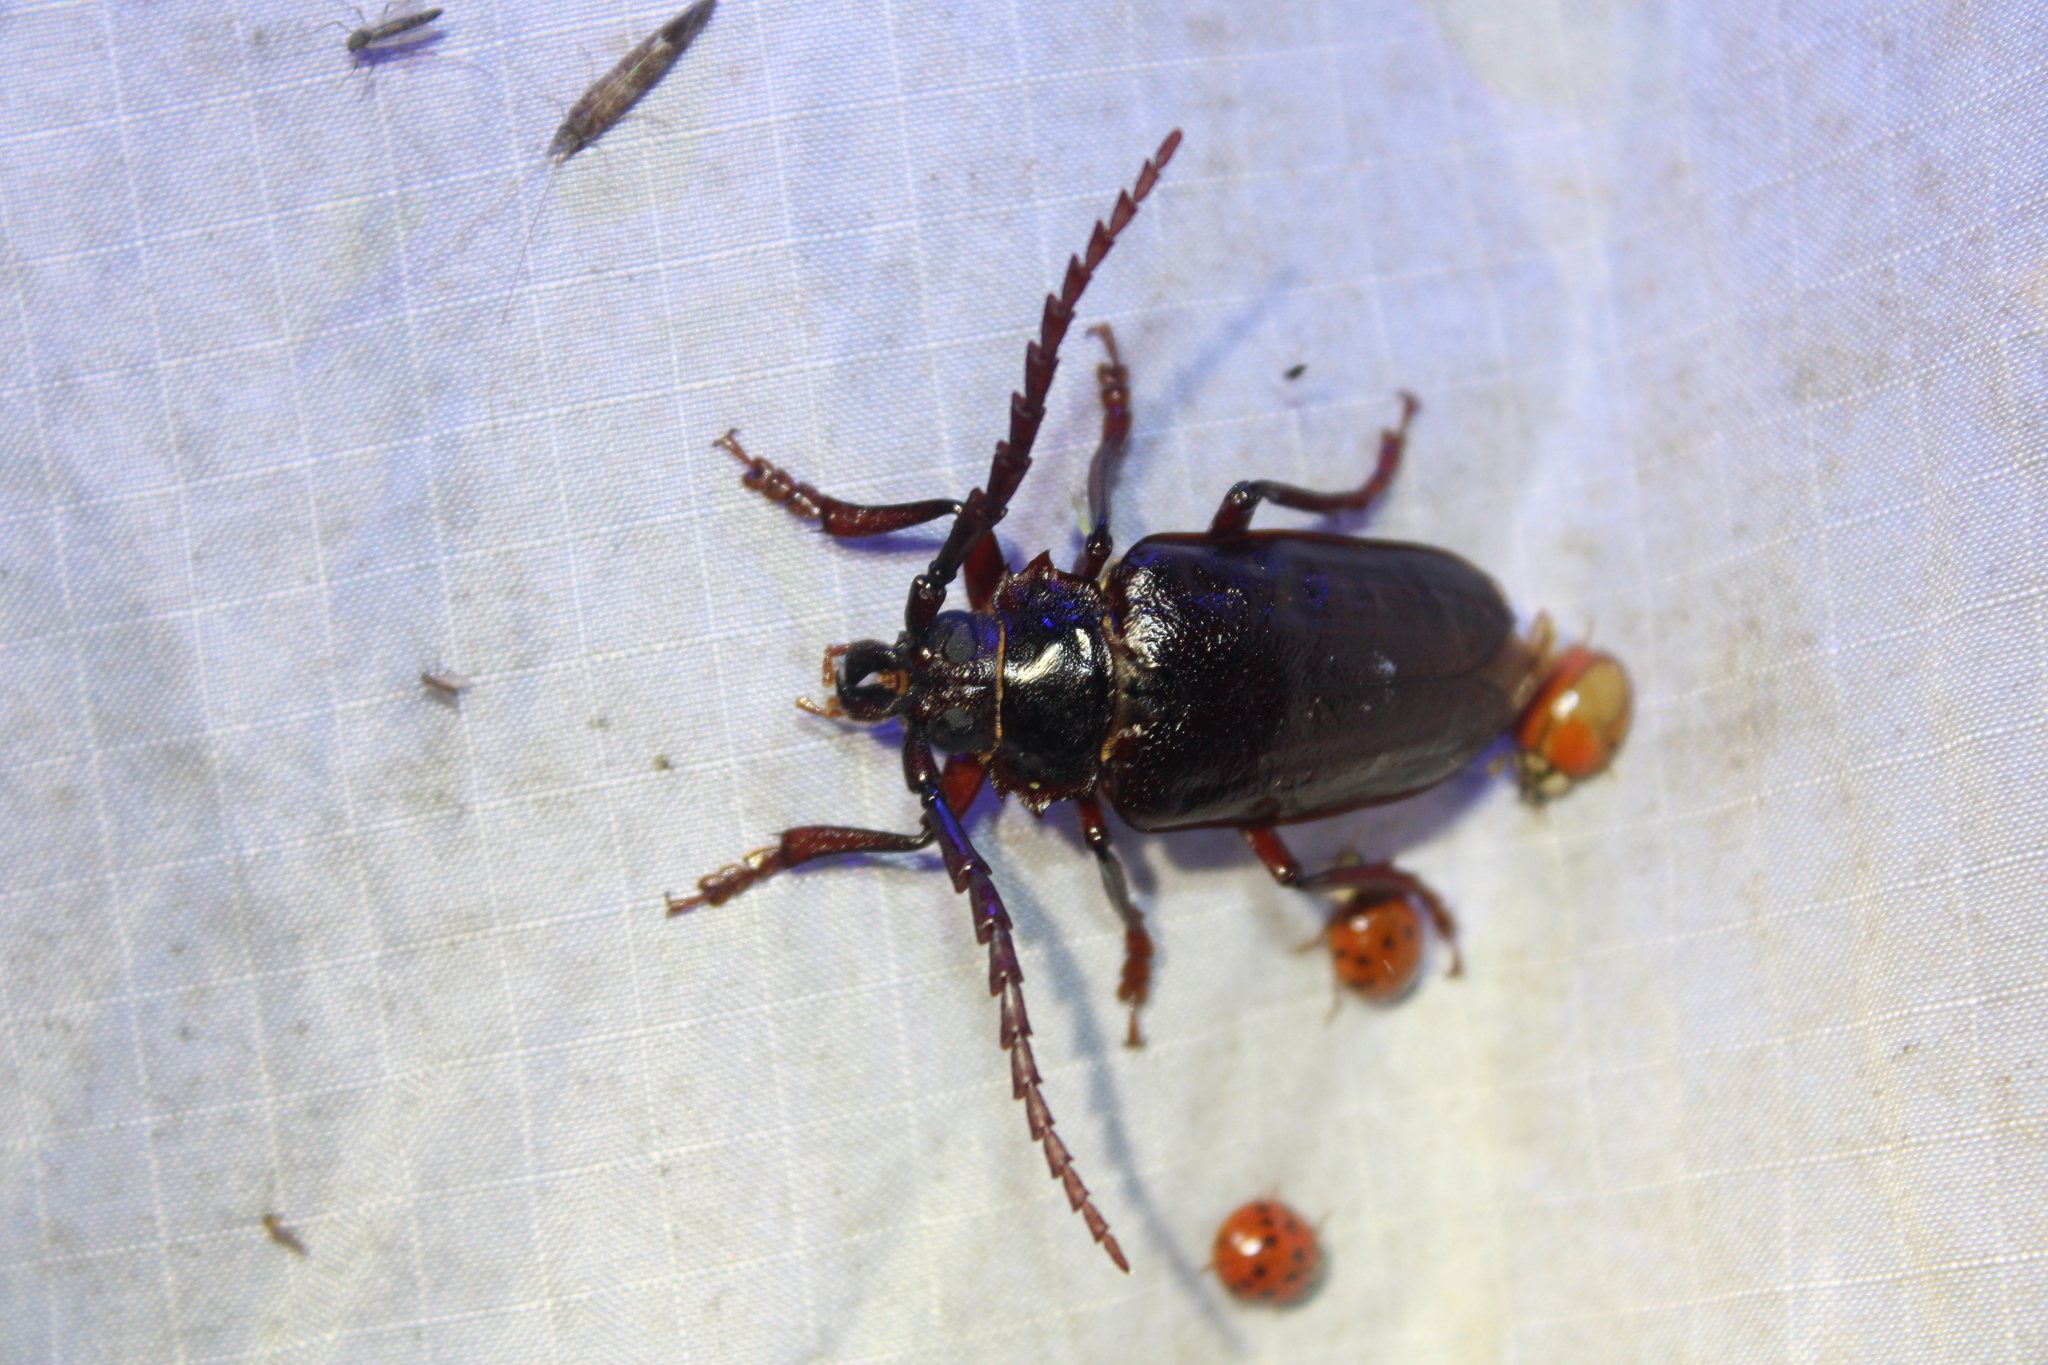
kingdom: Animalia
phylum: Arthropoda
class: Insecta
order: Coleoptera
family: Cerambycidae
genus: Prionus
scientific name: Prionus pocularis
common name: Tooth-necked longhorn beetle
